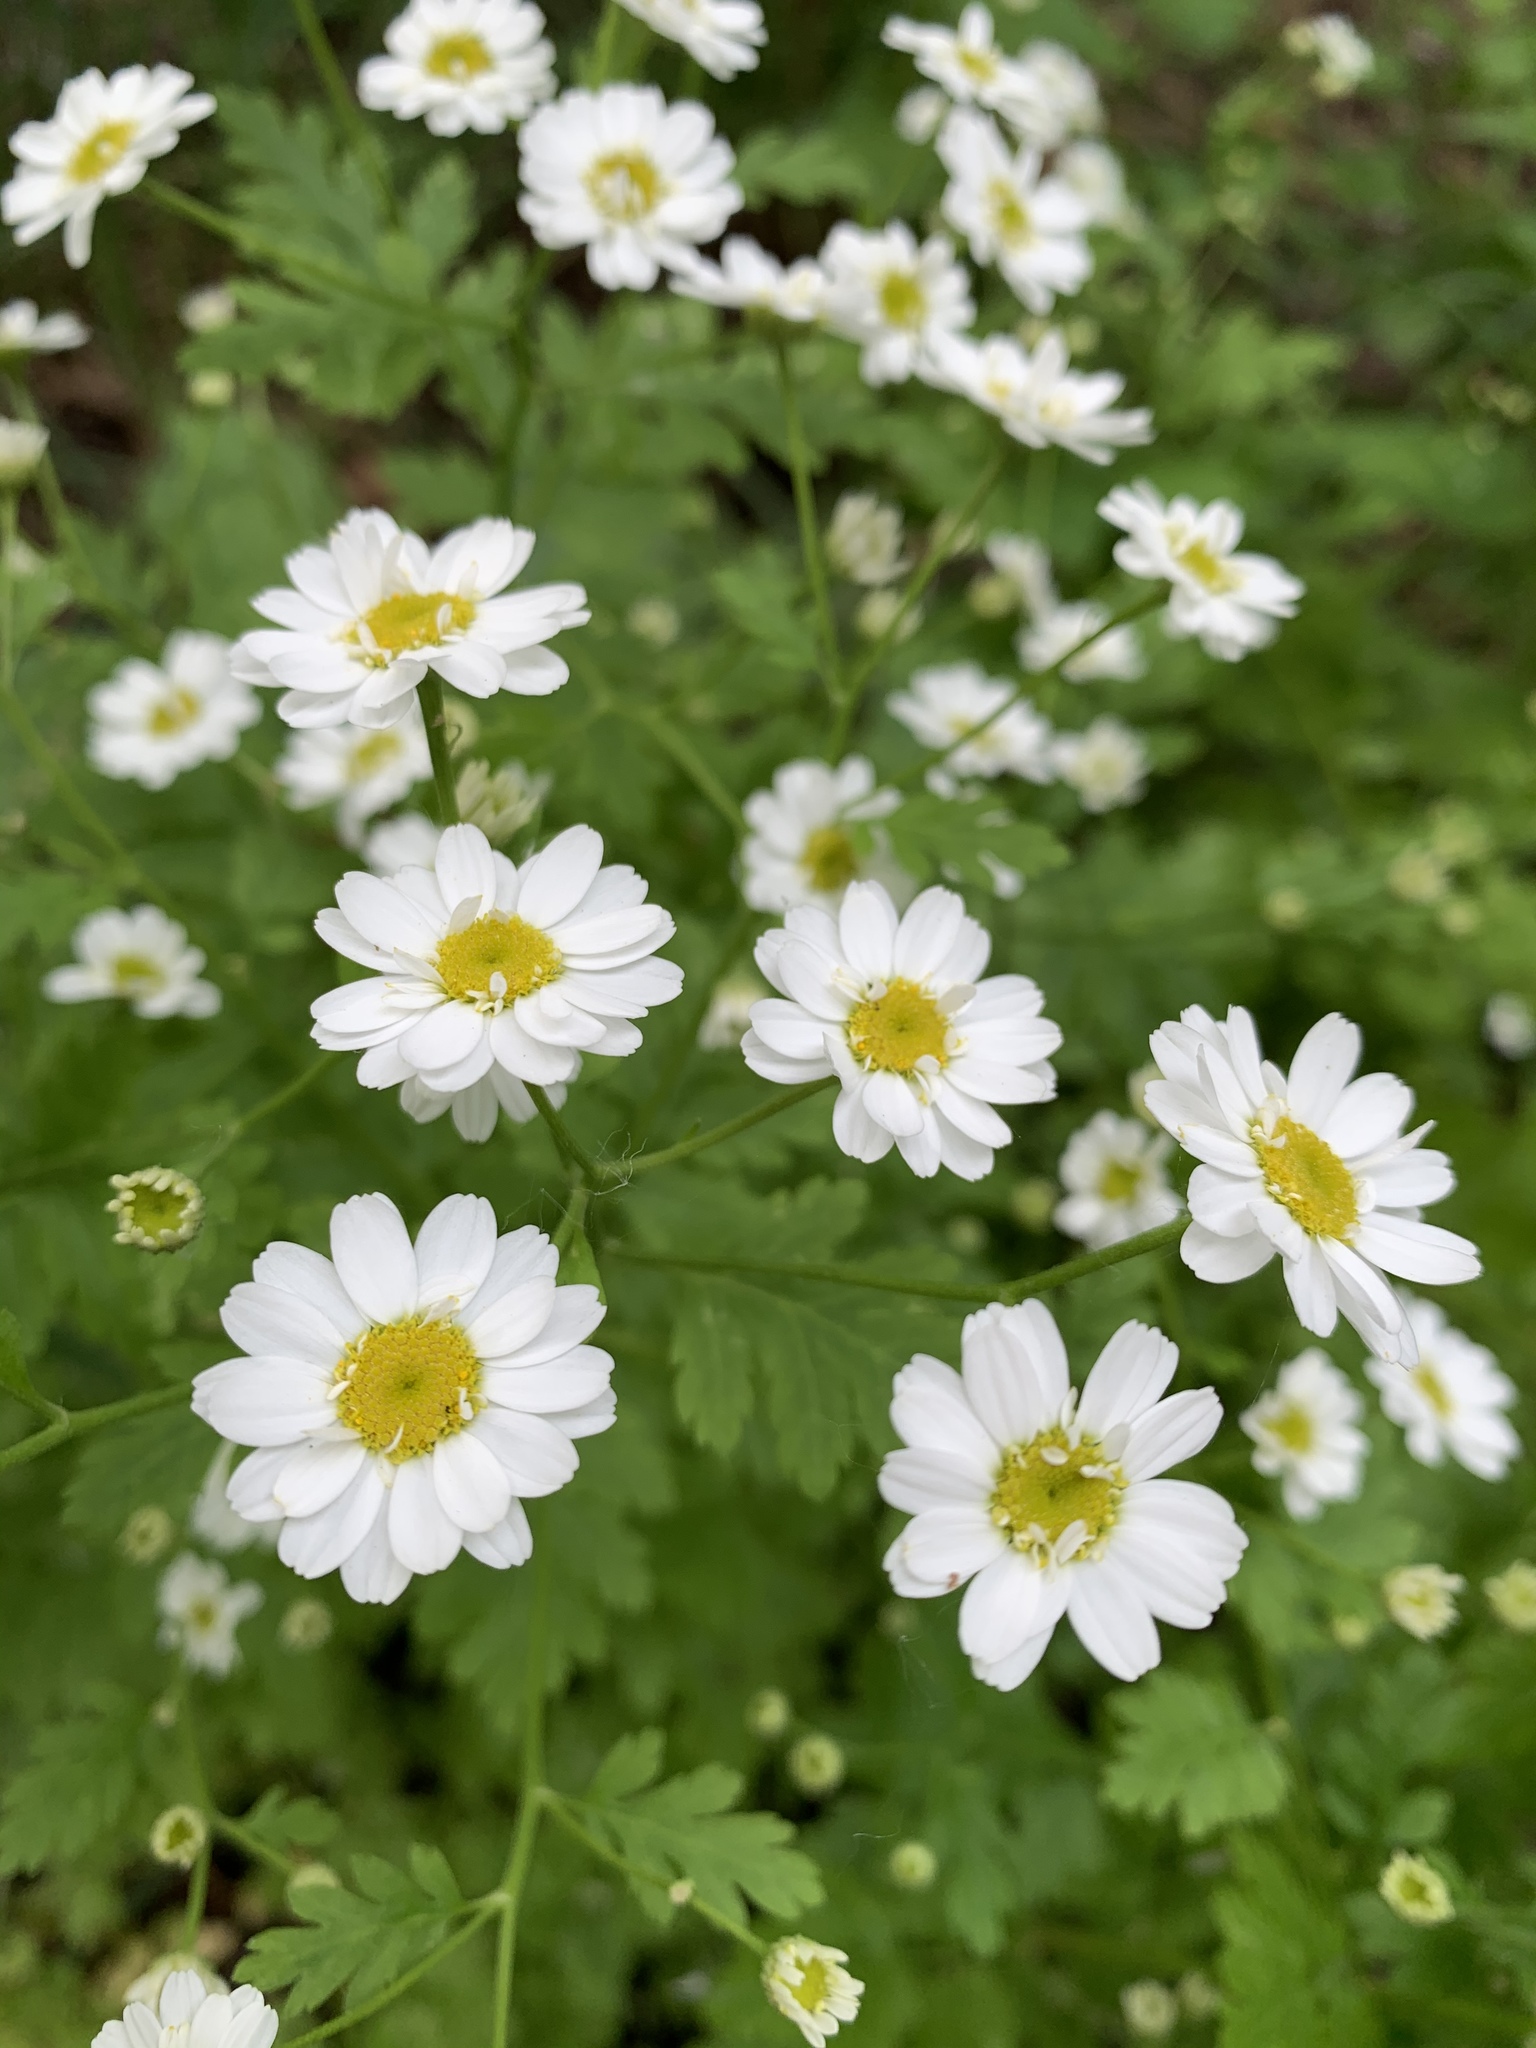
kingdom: Plantae
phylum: Tracheophyta
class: Magnoliopsida
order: Asterales
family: Asteraceae
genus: Tanacetum
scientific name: Tanacetum parthenium
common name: Feverfew
